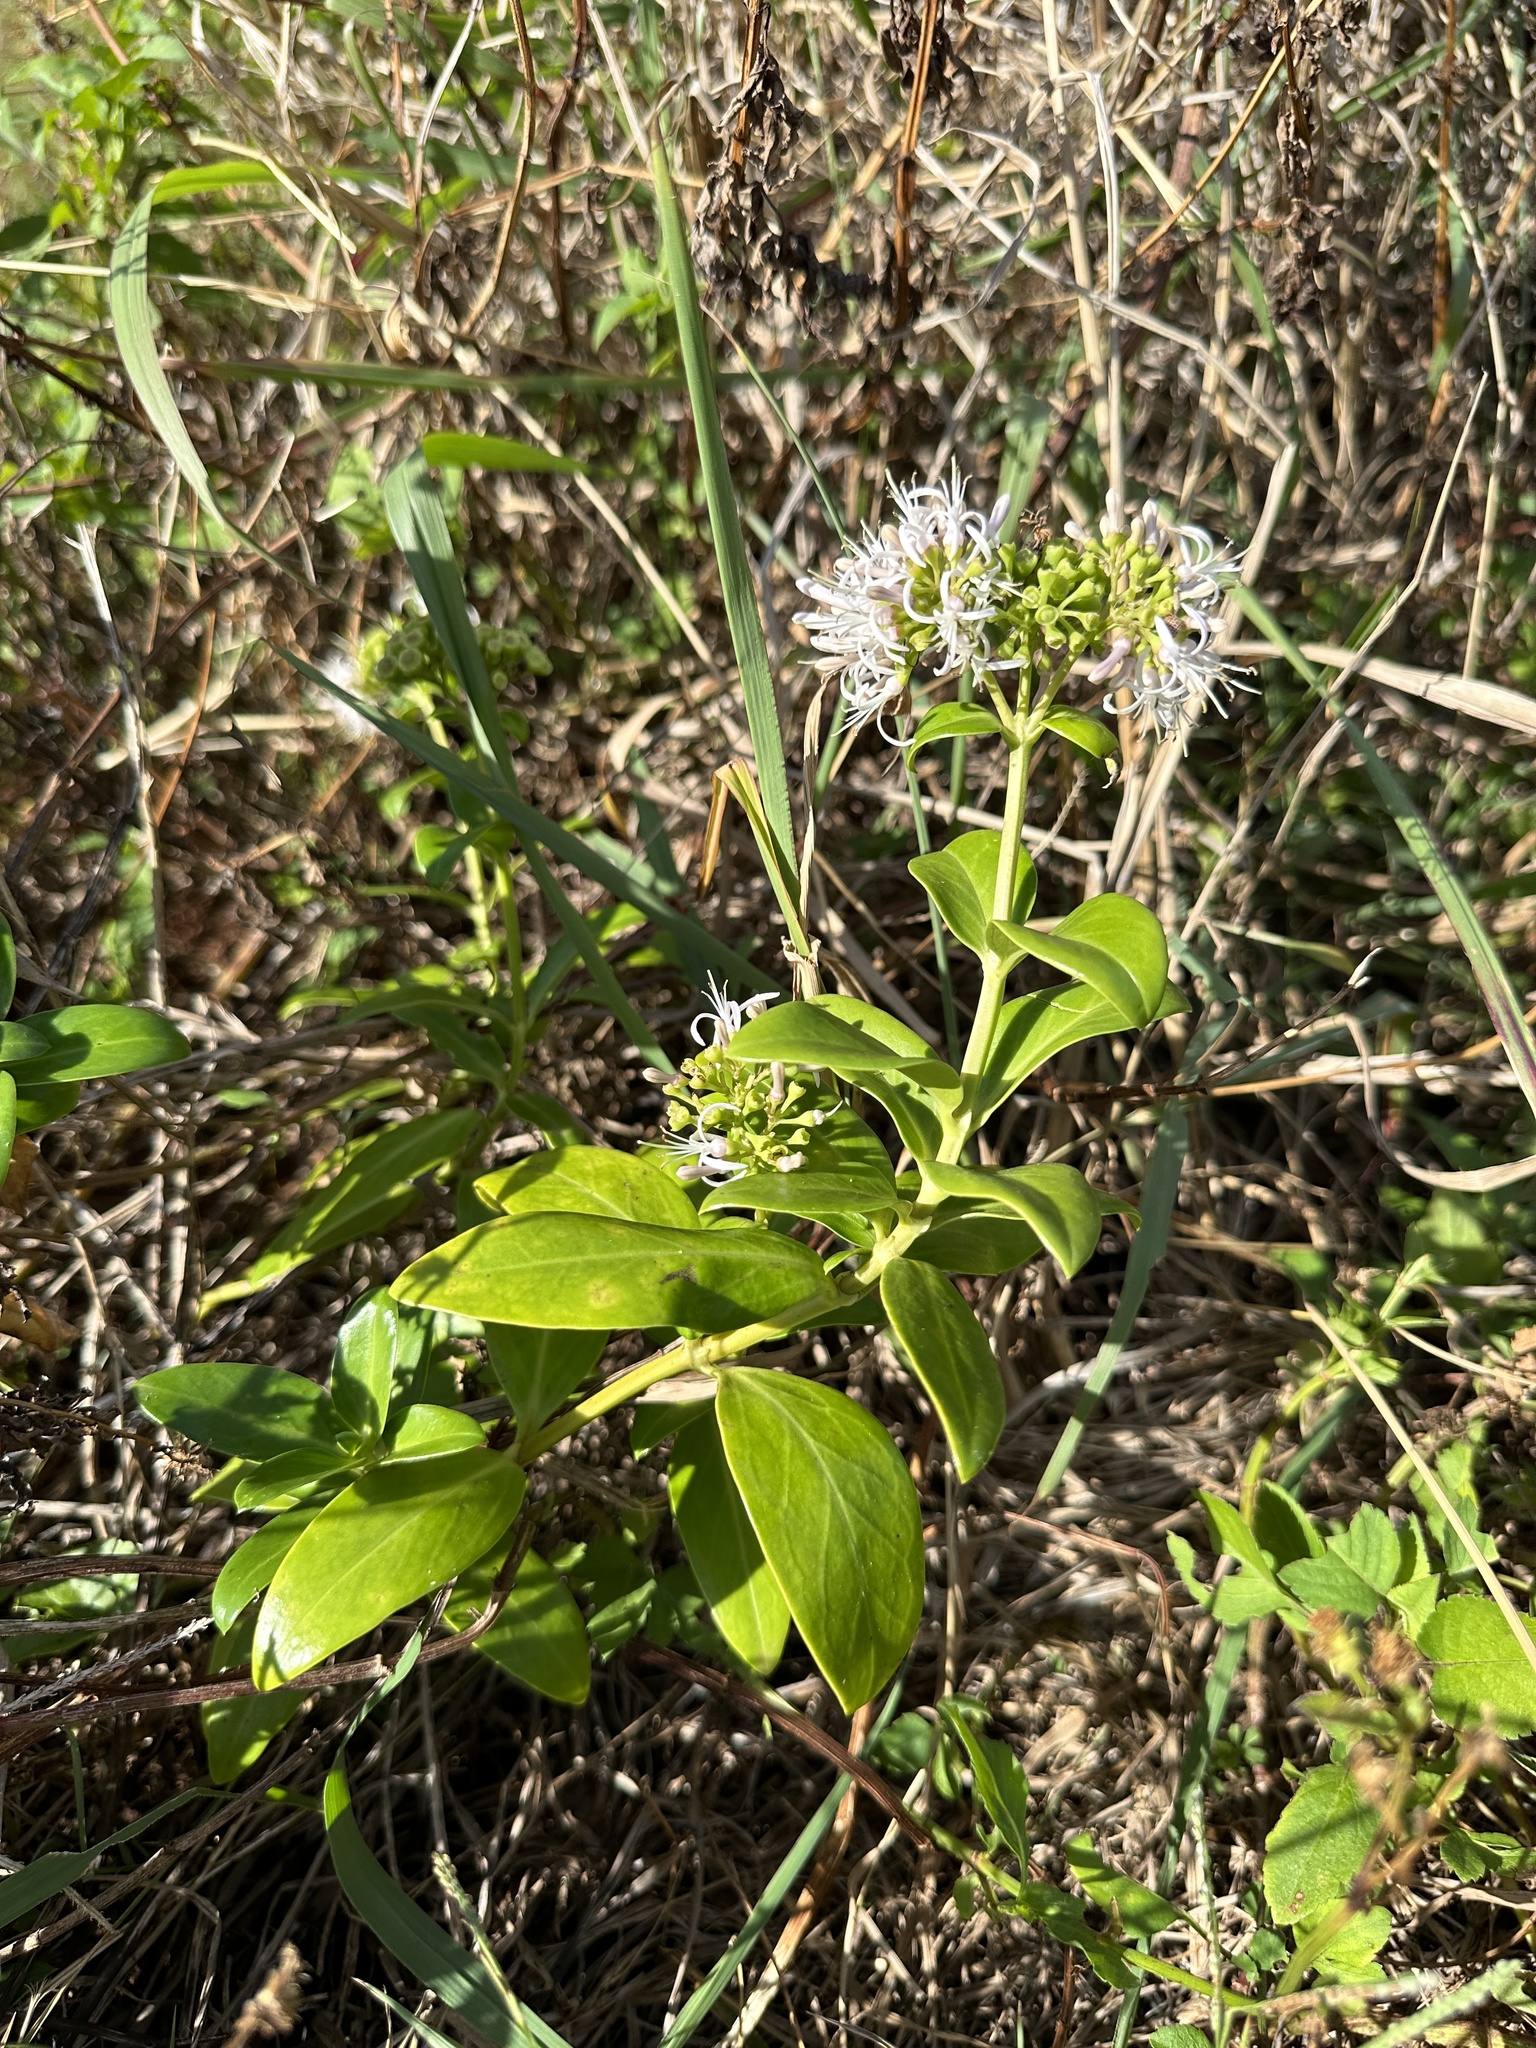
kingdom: Plantae
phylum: Tracheophyta
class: Magnoliopsida
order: Gentianales
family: Rubiaceae
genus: Leptopetalum
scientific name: Leptopetalum grayi
